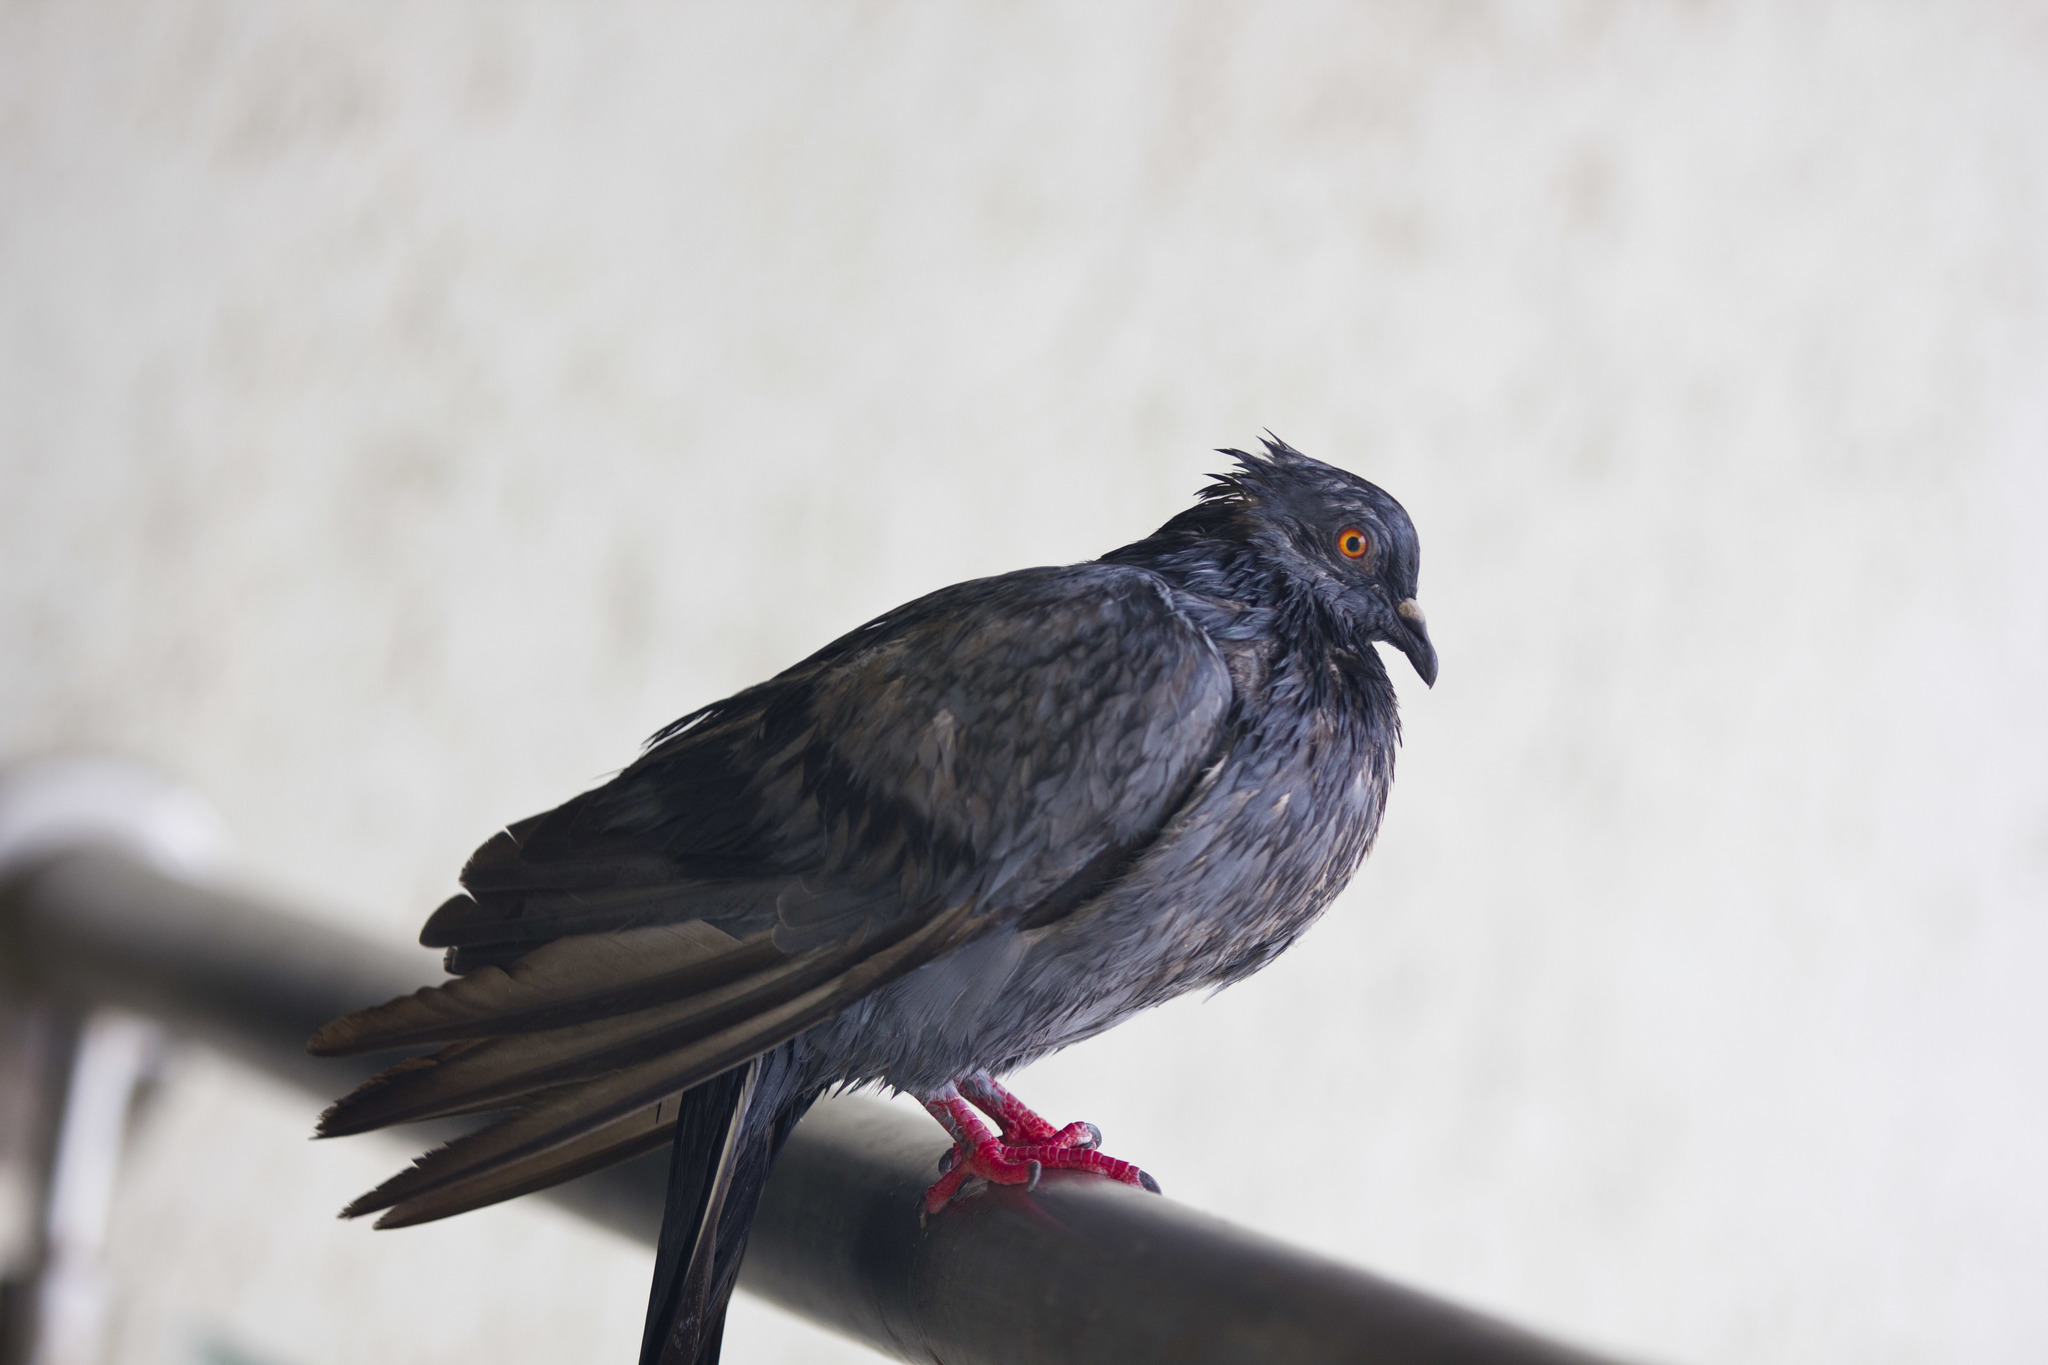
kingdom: Animalia
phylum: Chordata
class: Aves
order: Columbiformes
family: Columbidae
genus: Columba
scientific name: Columba livia
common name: Rock pigeon
